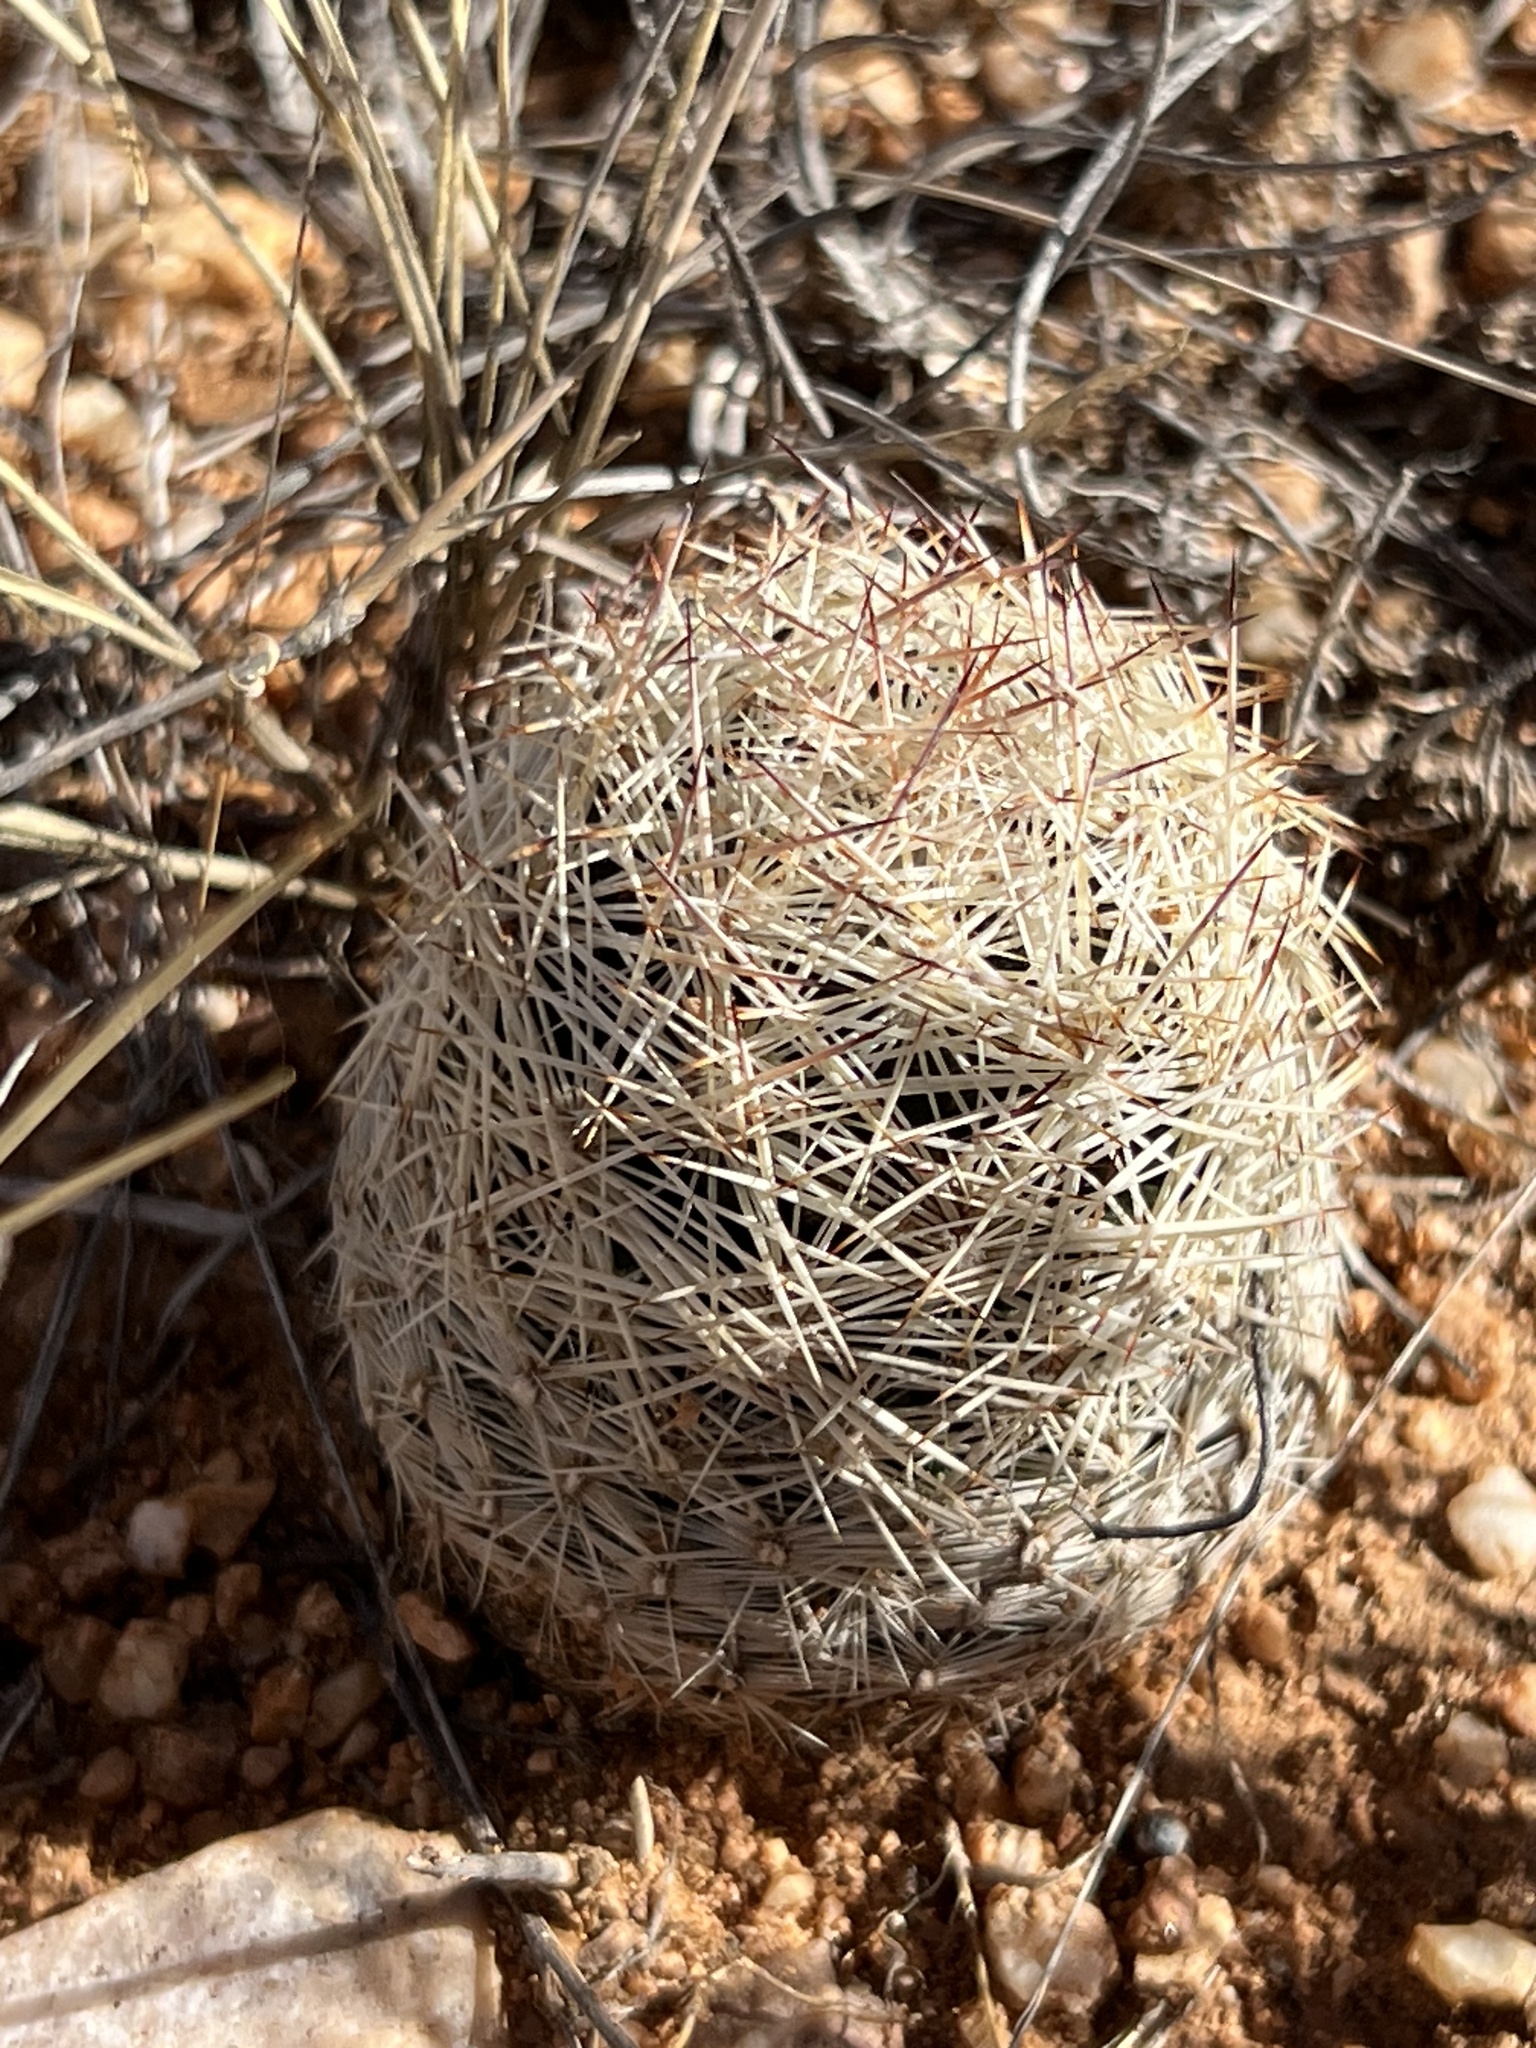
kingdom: Plantae
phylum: Tracheophyta
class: Magnoliopsida
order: Caryophyllales
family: Cactaceae
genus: Pelecyphora
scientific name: Pelecyphora vivipara
